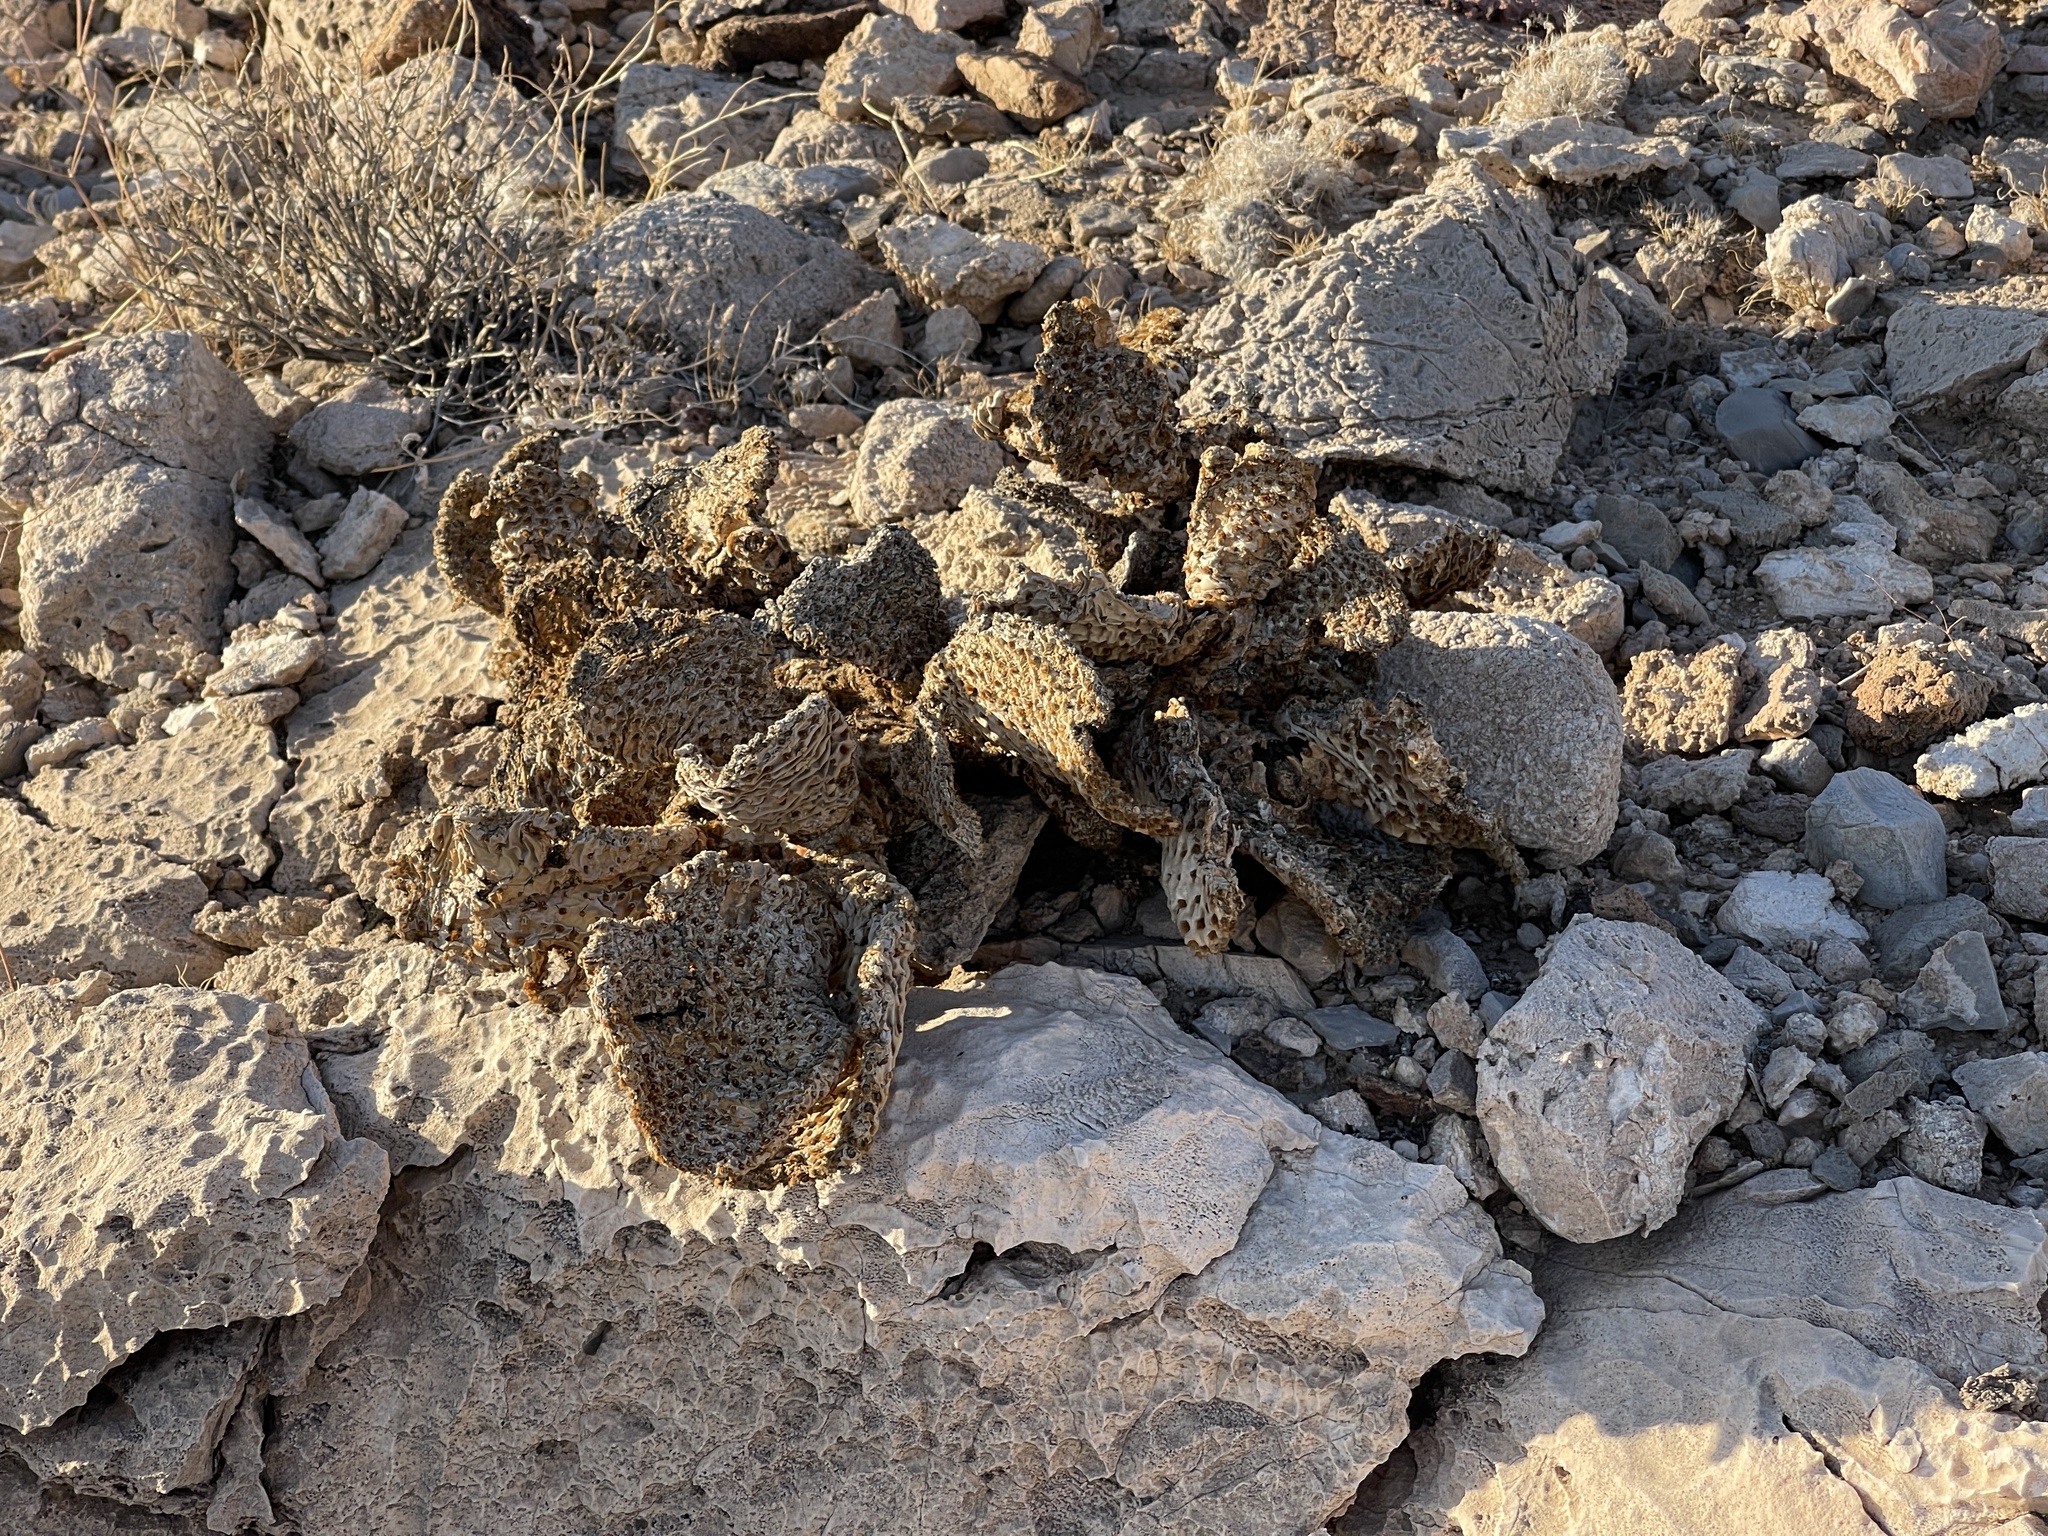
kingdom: Plantae
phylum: Tracheophyta
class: Magnoliopsida
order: Caryophyllales
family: Cactaceae
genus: Opuntia
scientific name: Opuntia basilaris
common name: Beavertail prickly-pear
